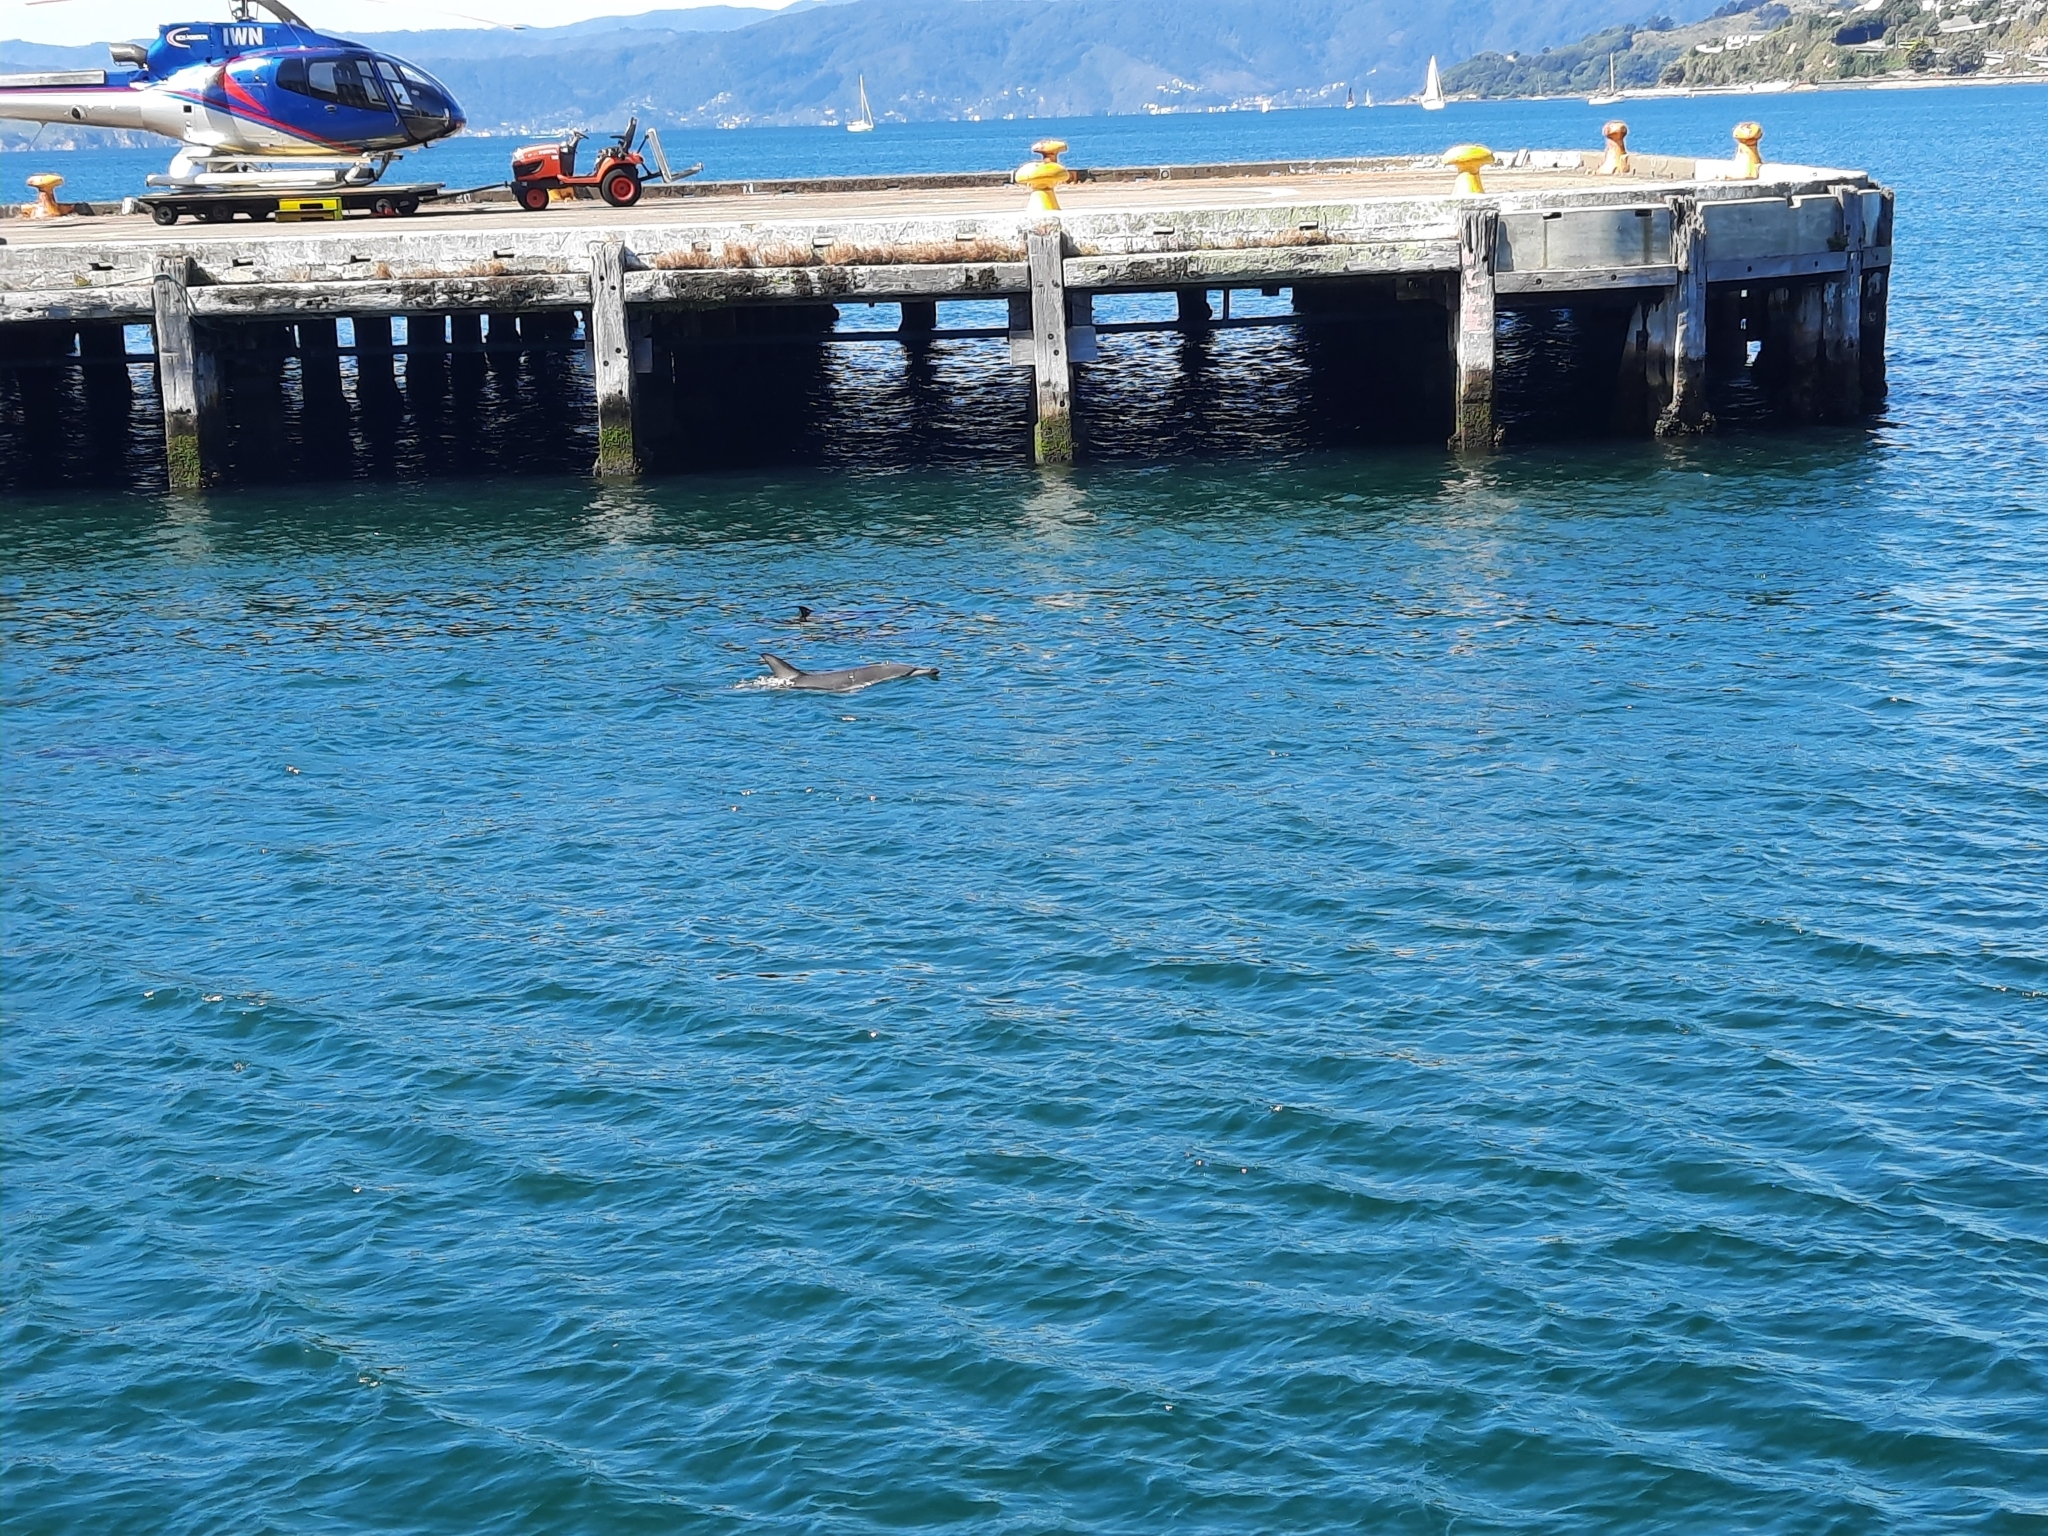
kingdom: Animalia
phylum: Chordata
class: Mammalia
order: Cetacea
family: Delphinidae
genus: Delphinus
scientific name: Delphinus delphis
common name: Common dolphin
